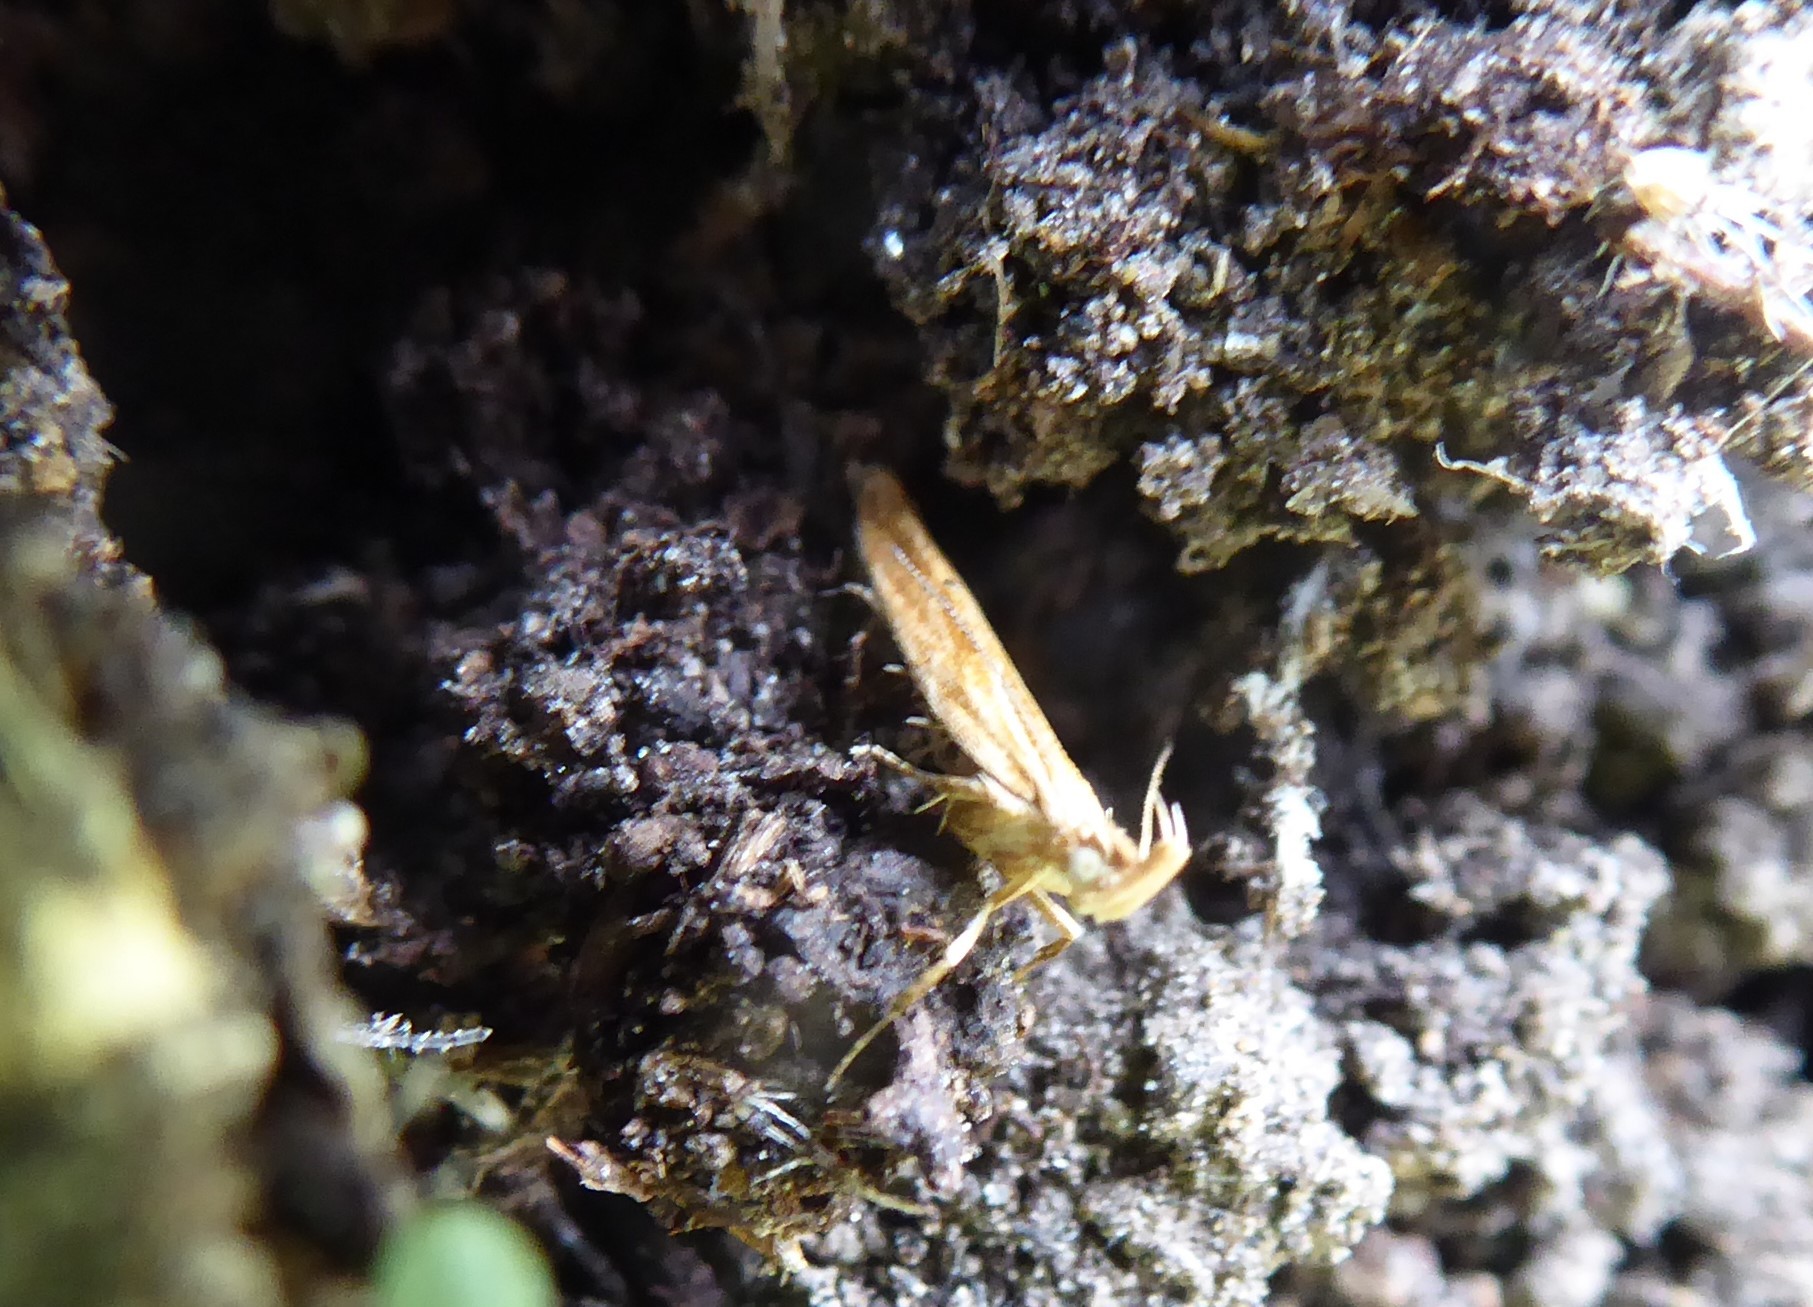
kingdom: Animalia
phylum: Arthropoda
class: Insecta
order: Lepidoptera
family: Depressariidae
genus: Eutorna
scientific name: Eutorna symmorpha
